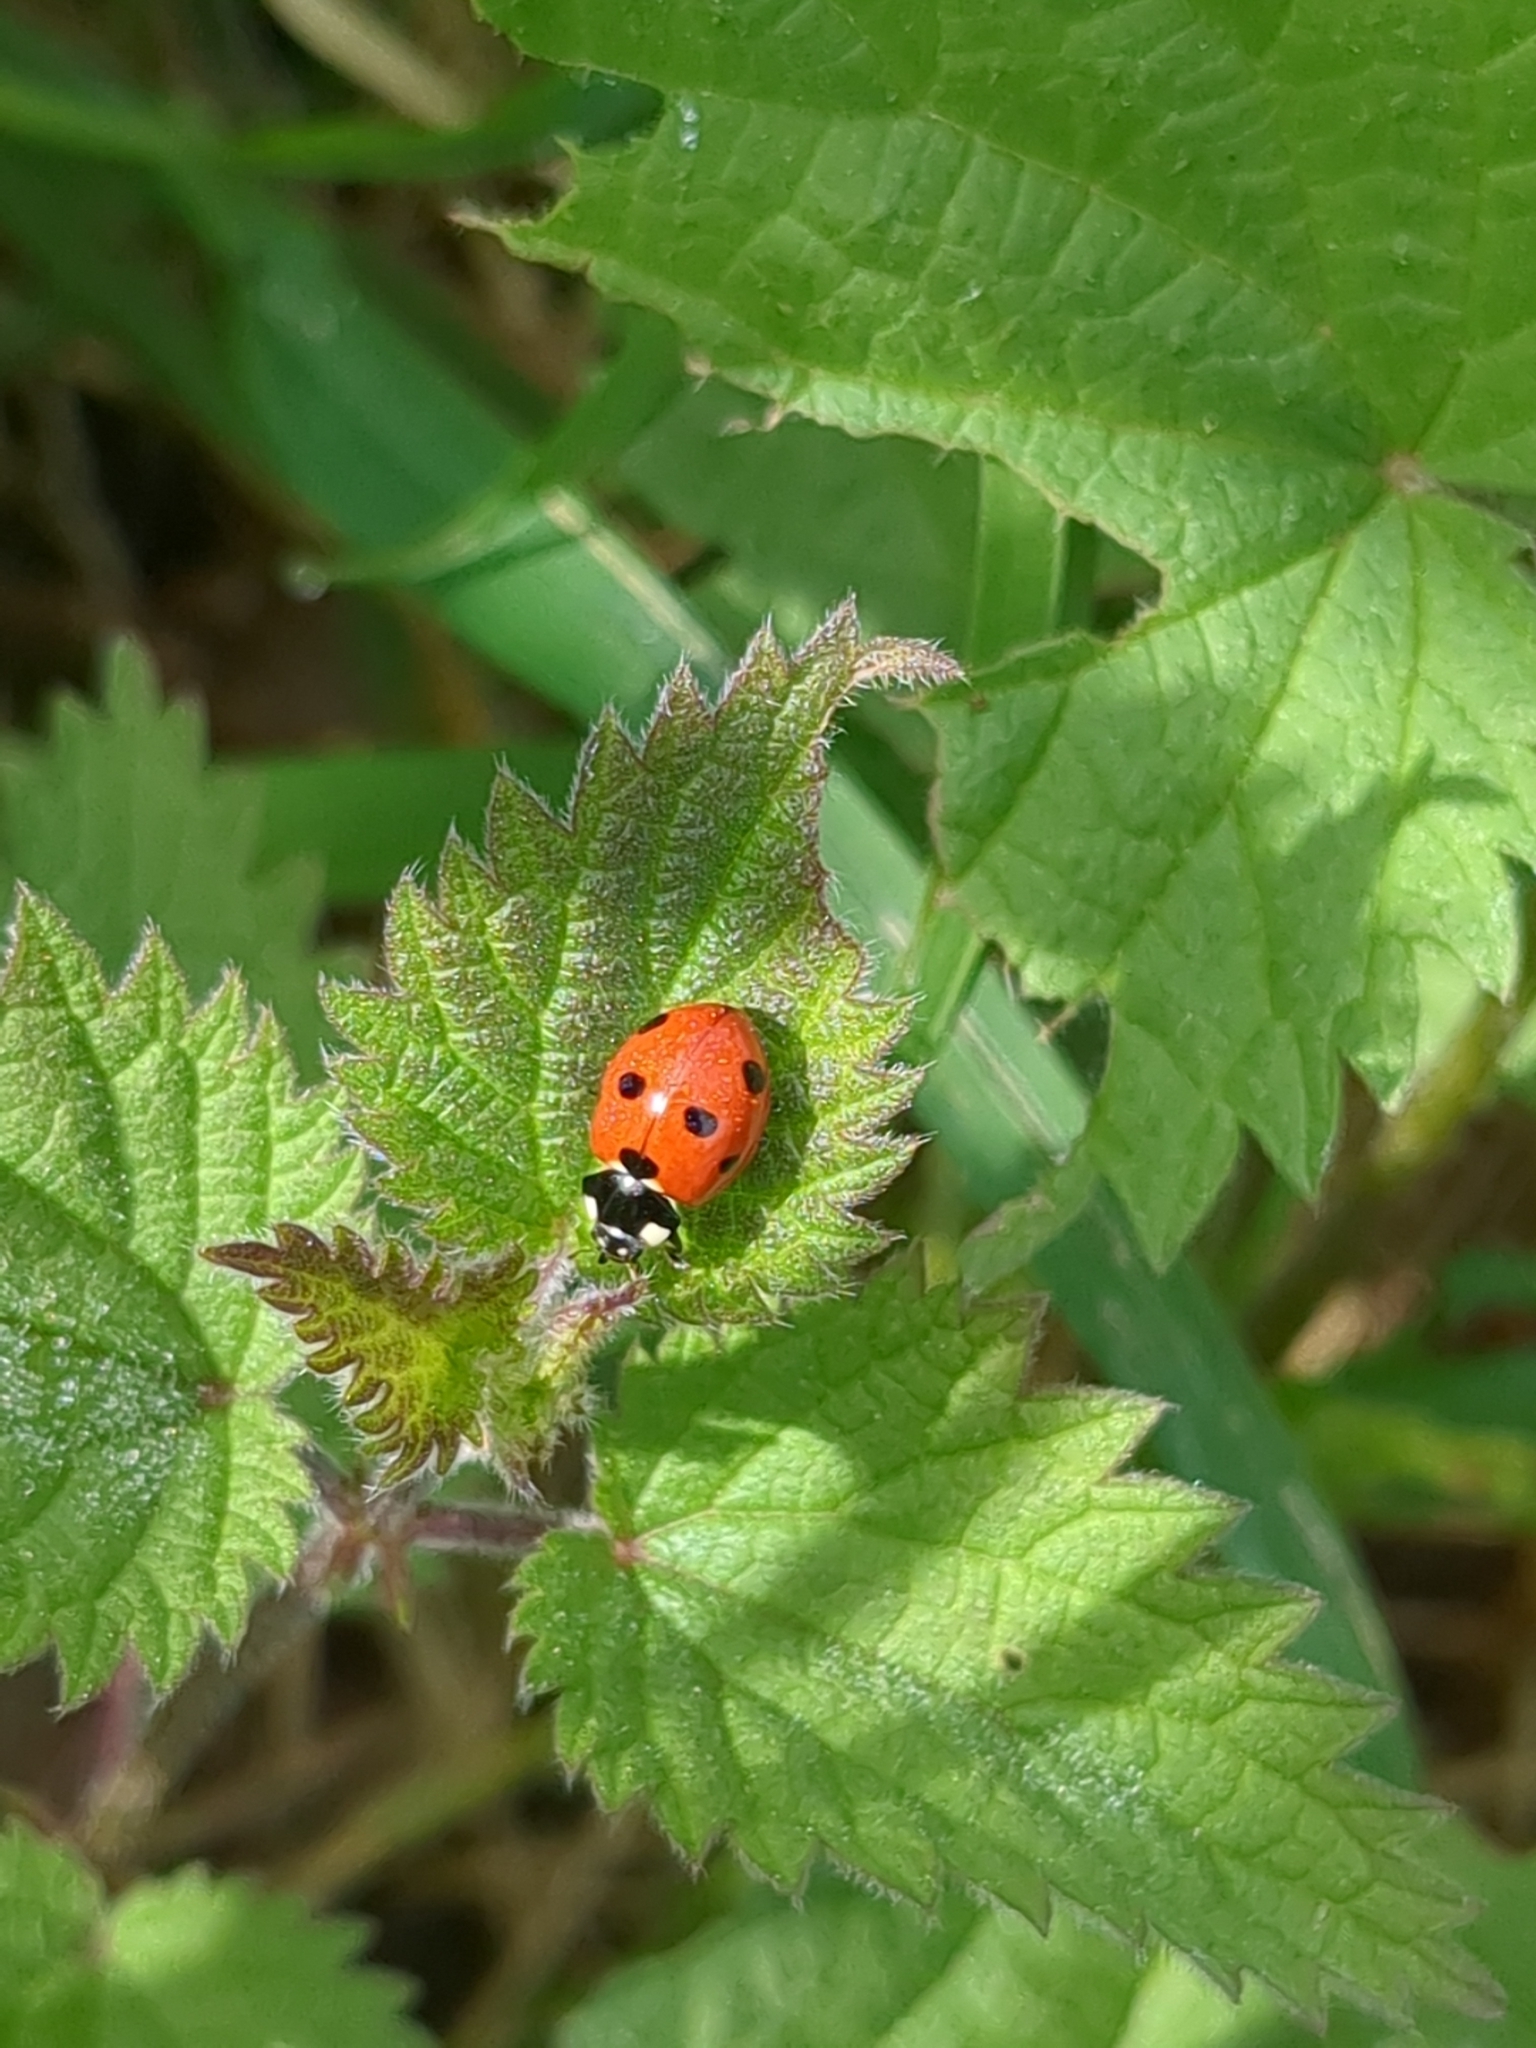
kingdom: Animalia
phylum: Arthropoda
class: Insecta
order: Coleoptera
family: Coccinellidae
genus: Coccinella
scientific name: Coccinella septempunctata
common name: Sevenspotted lady beetle
